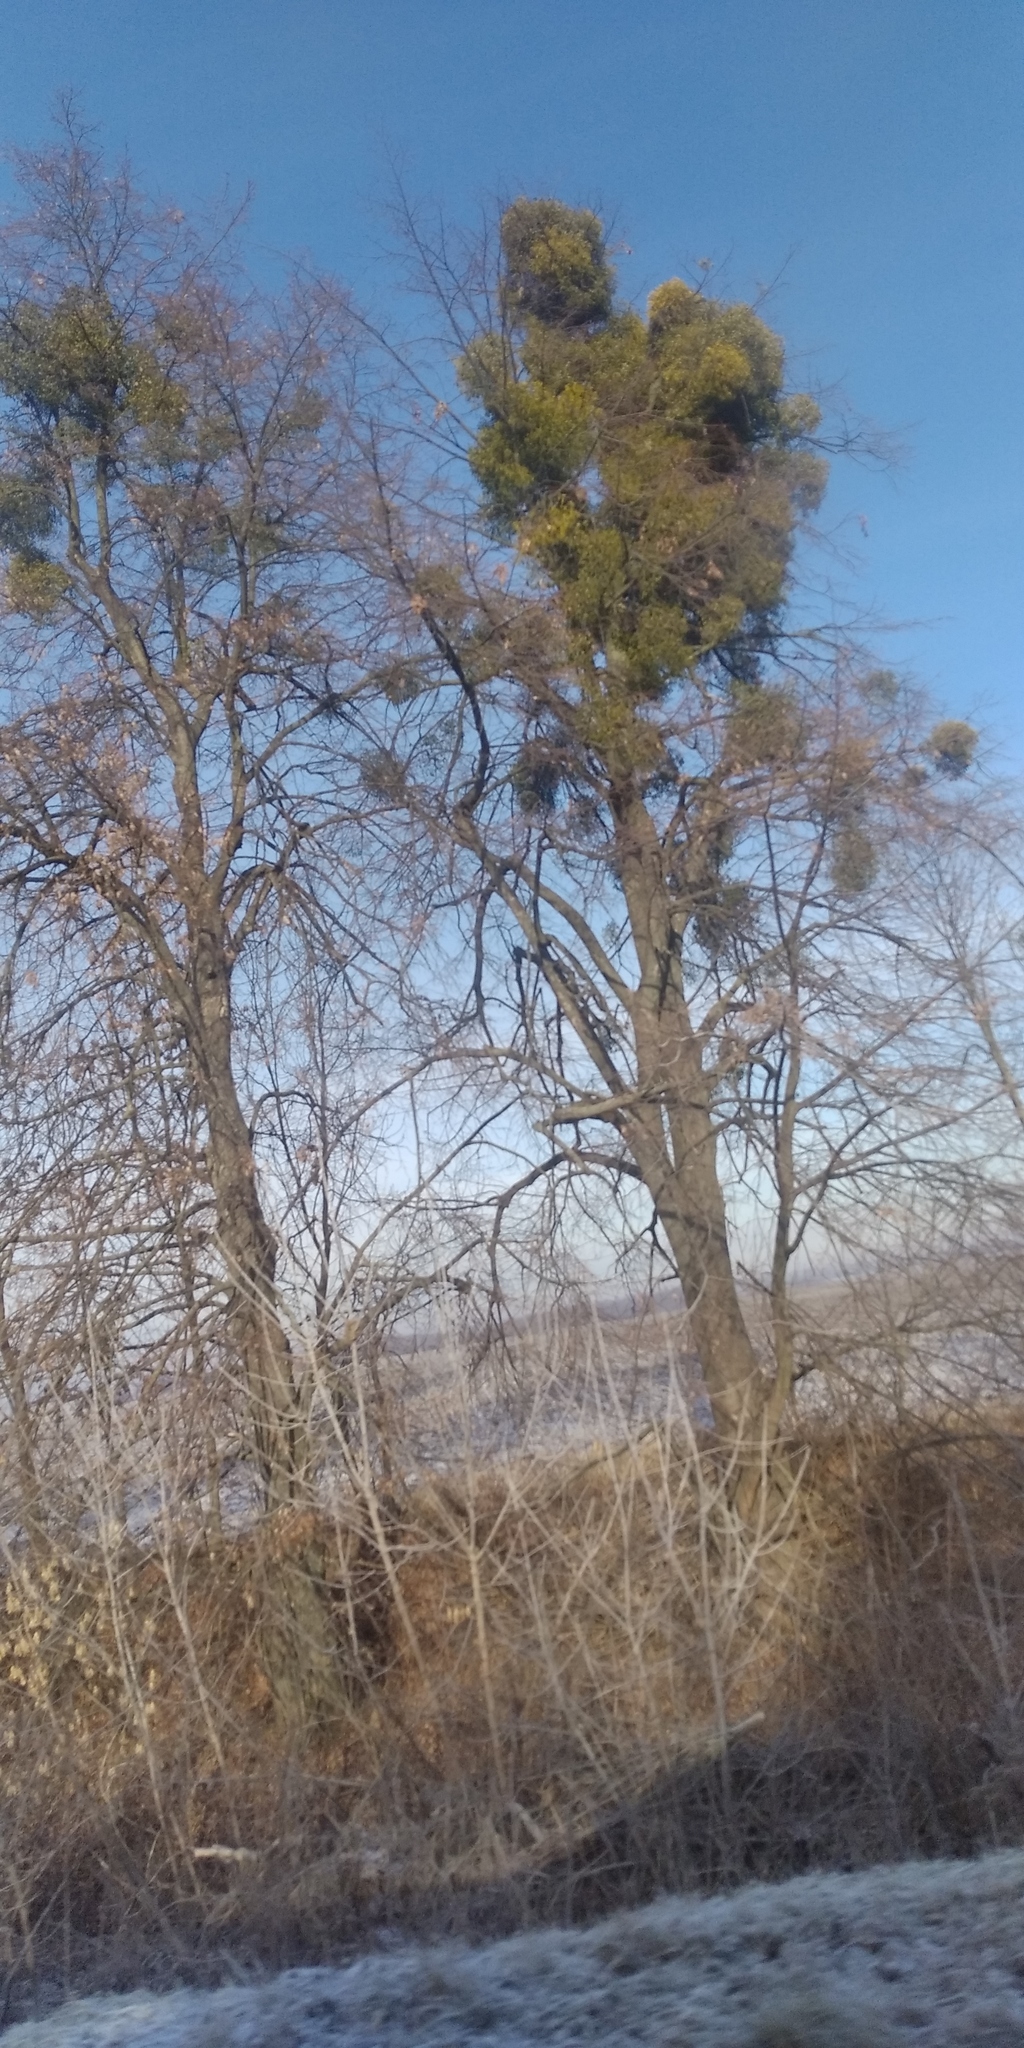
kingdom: Plantae
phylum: Tracheophyta
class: Magnoliopsida
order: Santalales
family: Viscaceae
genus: Viscum
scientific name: Viscum album
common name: Mistletoe
